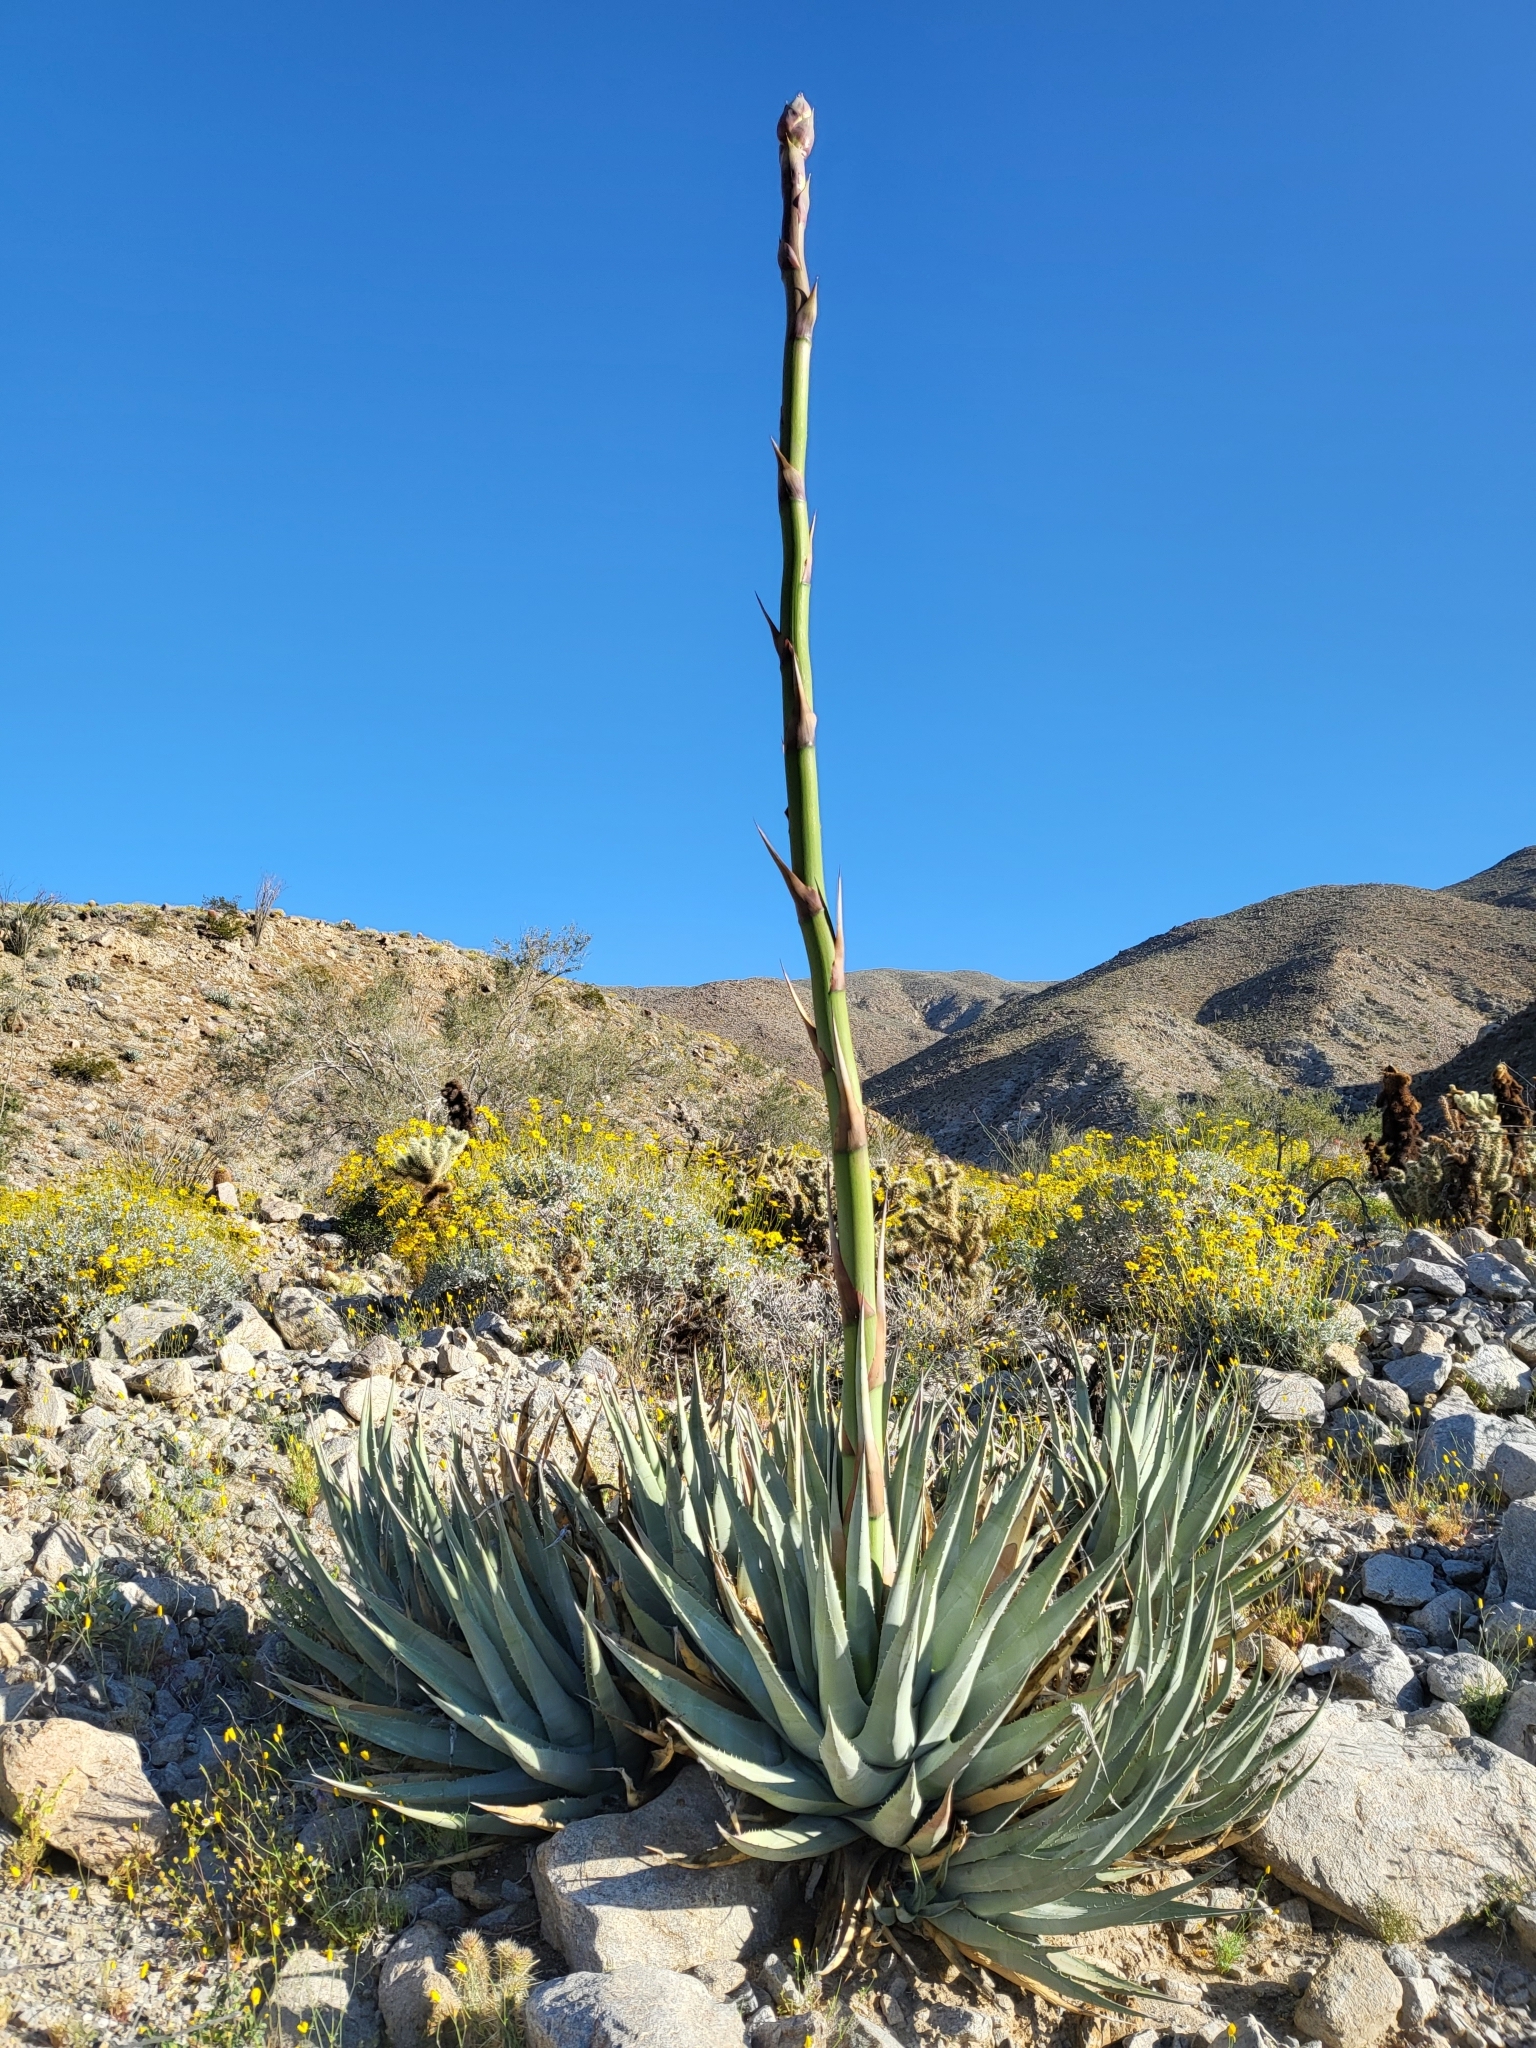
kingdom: Plantae
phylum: Tracheophyta
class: Liliopsida
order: Asparagales
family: Asparagaceae
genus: Agave
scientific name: Agave deserti
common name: Desert agave
